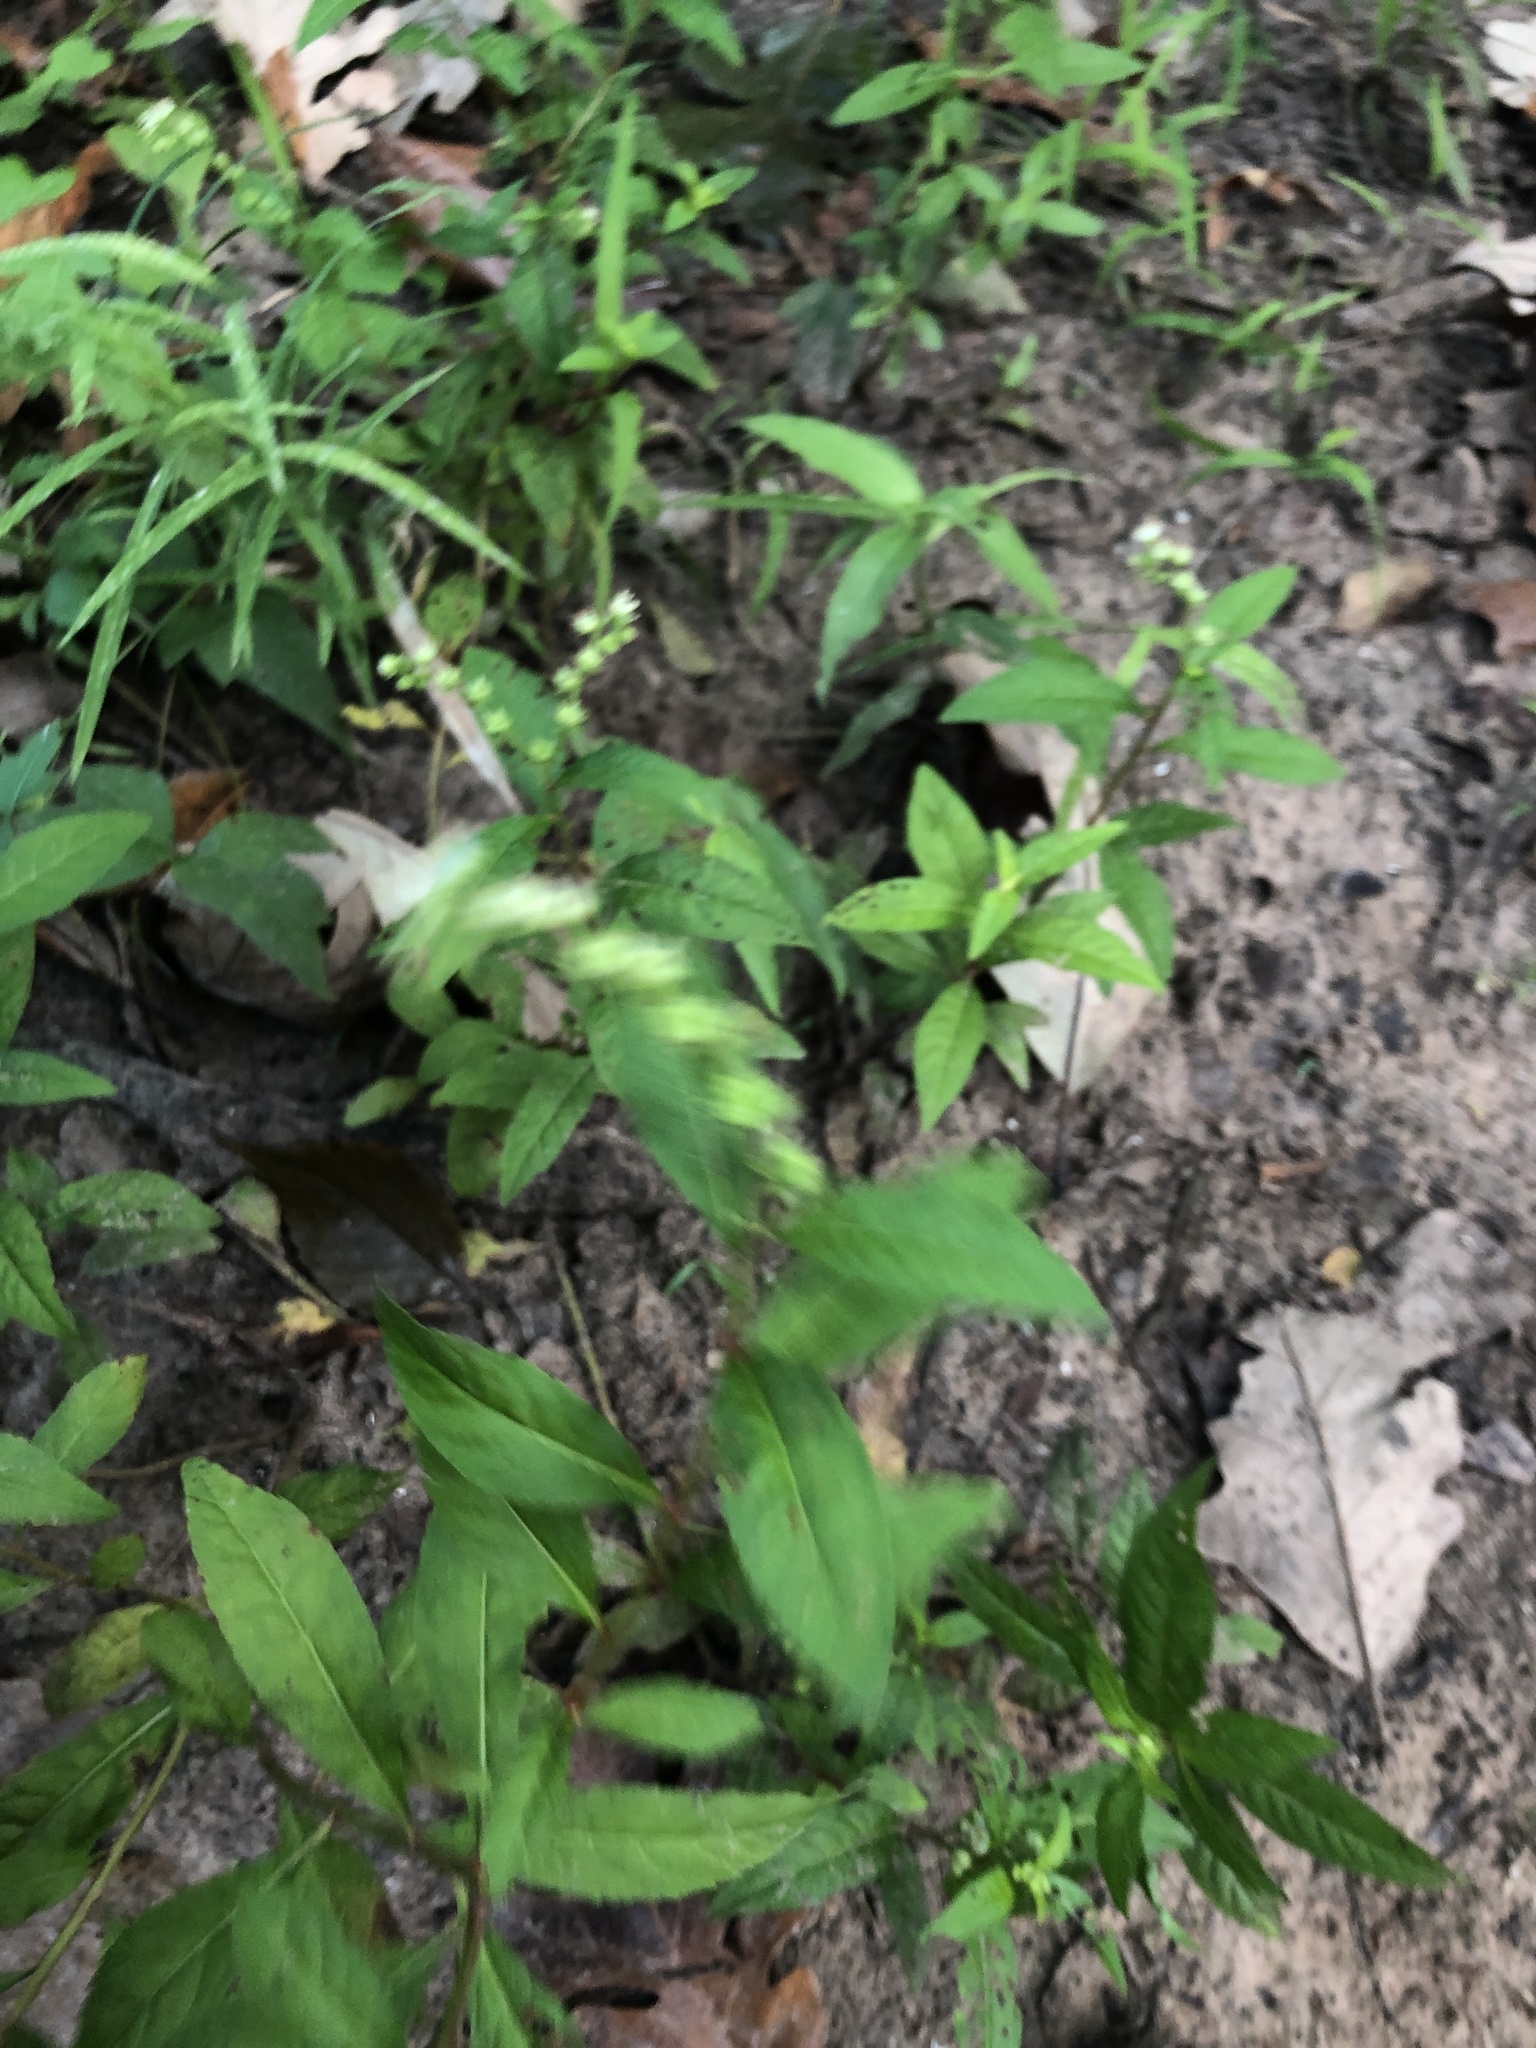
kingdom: Plantae
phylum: Tracheophyta
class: Magnoliopsida
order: Saxifragales
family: Penthoraceae
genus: Penthorum
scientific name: Penthorum sedoides
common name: Ditch stonecrop
